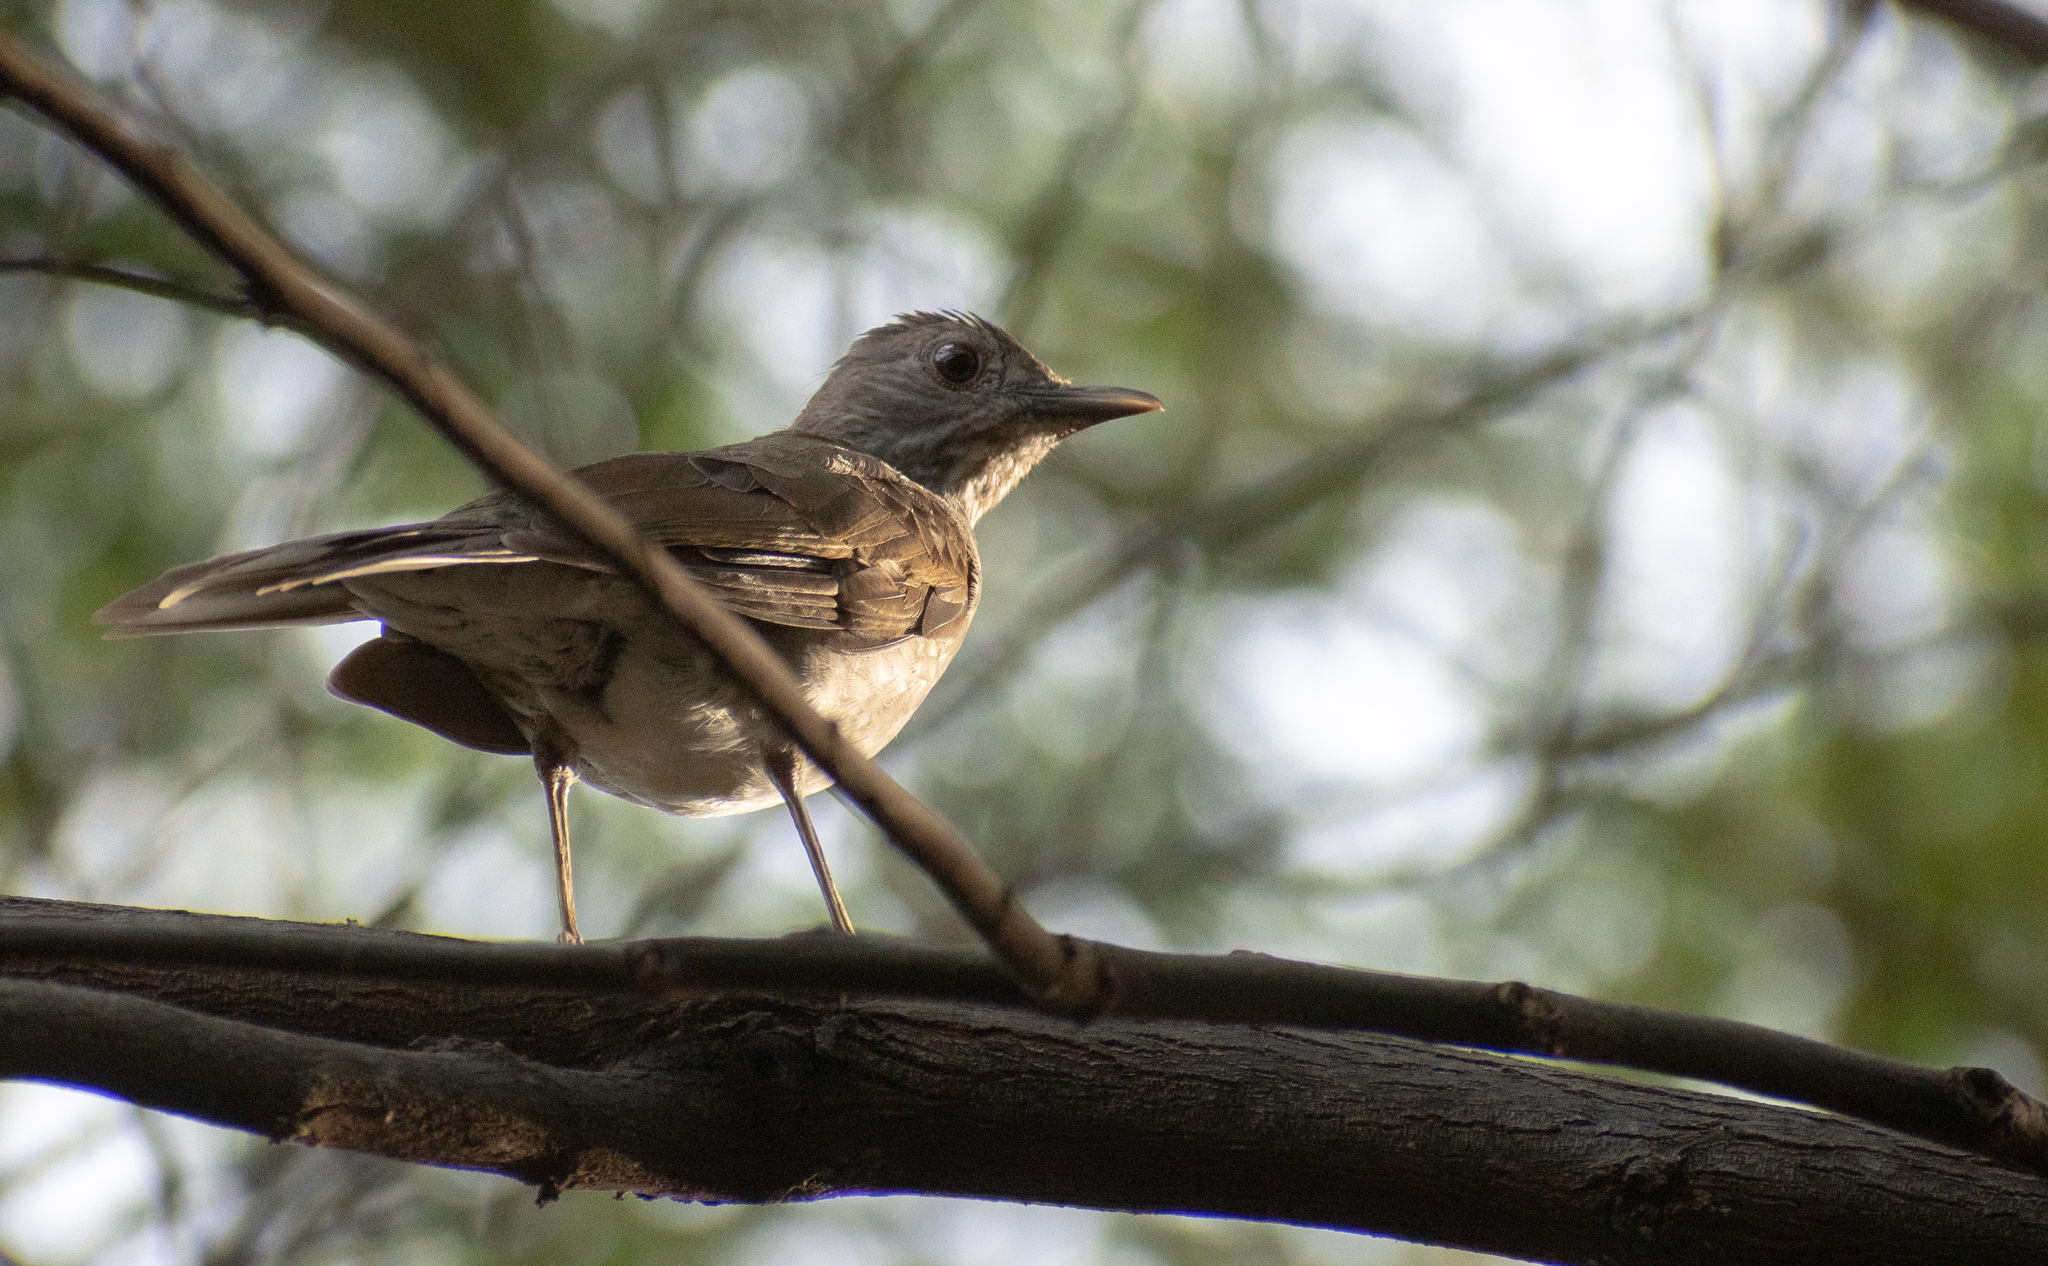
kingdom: Animalia
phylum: Chordata
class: Aves
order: Passeriformes
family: Turdidae
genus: Turdus
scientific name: Turdus leucomelas
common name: Pale-breasted thrush
